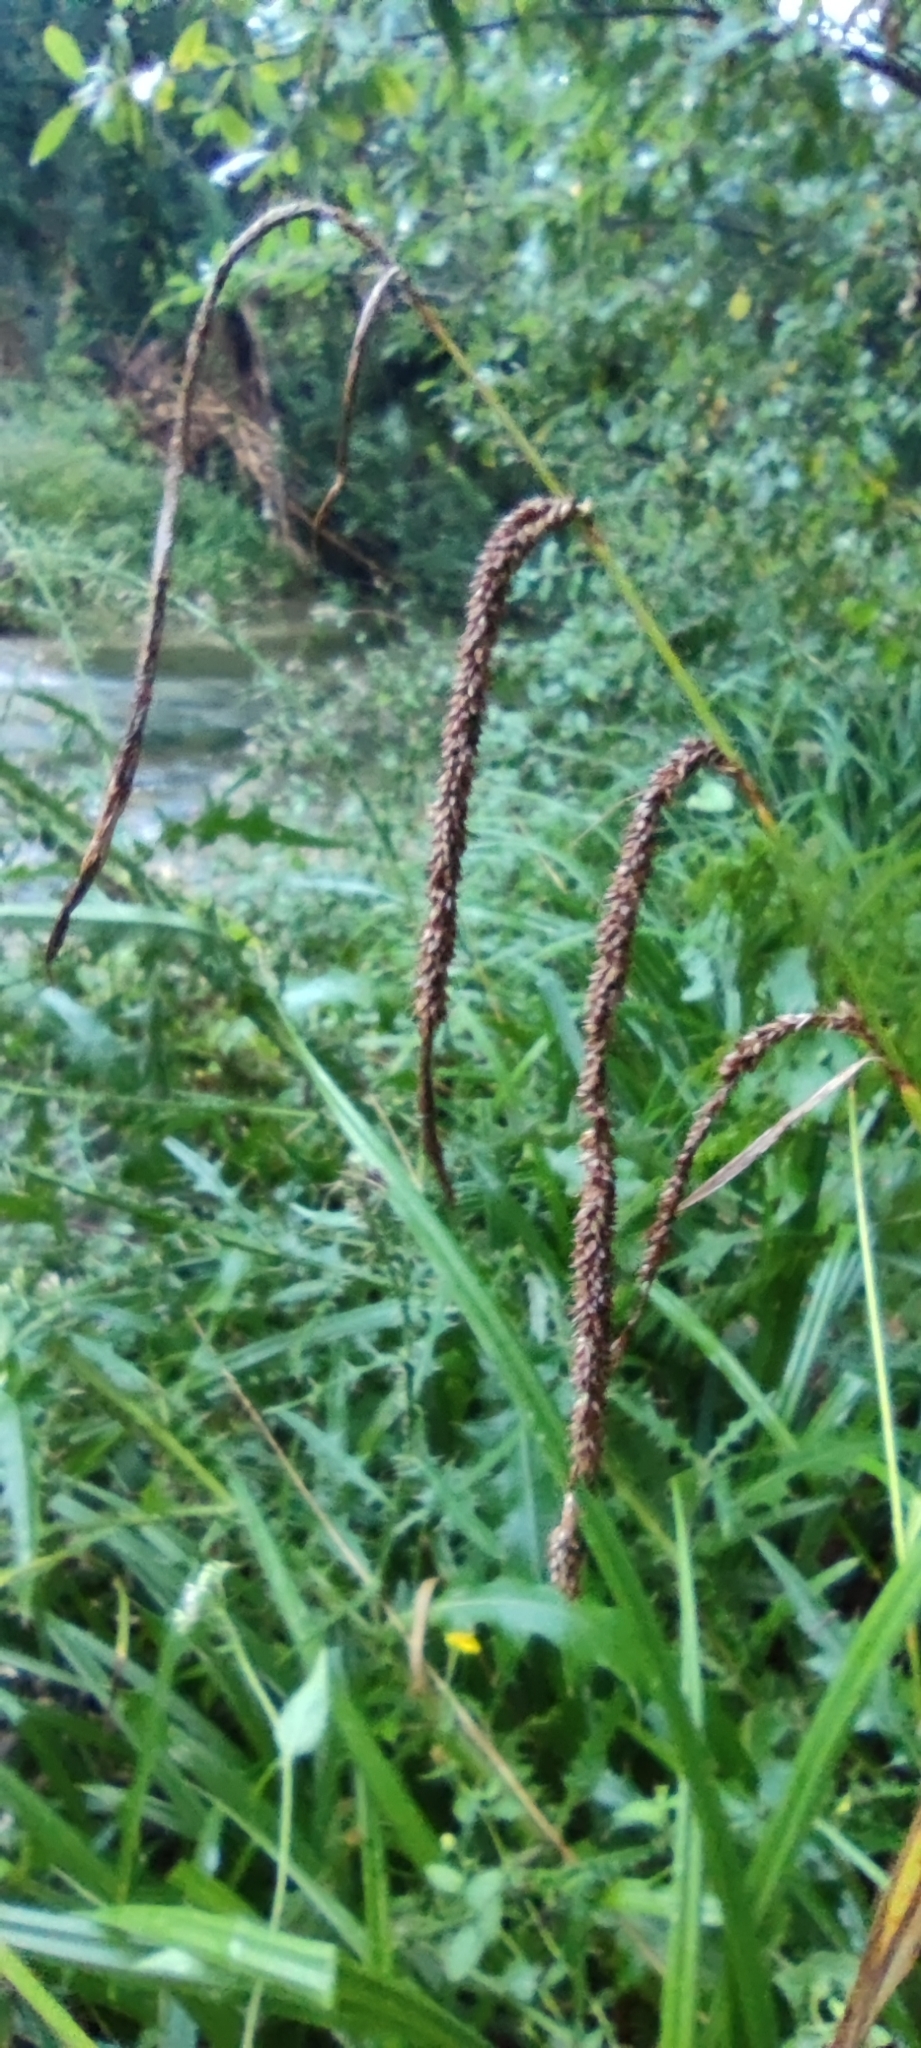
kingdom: Plantae
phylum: Tracheophyta
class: Liliopsida
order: Poales
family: Cyperaceae
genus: Carex
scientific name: Carex pendula
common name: Pendulous sedge
